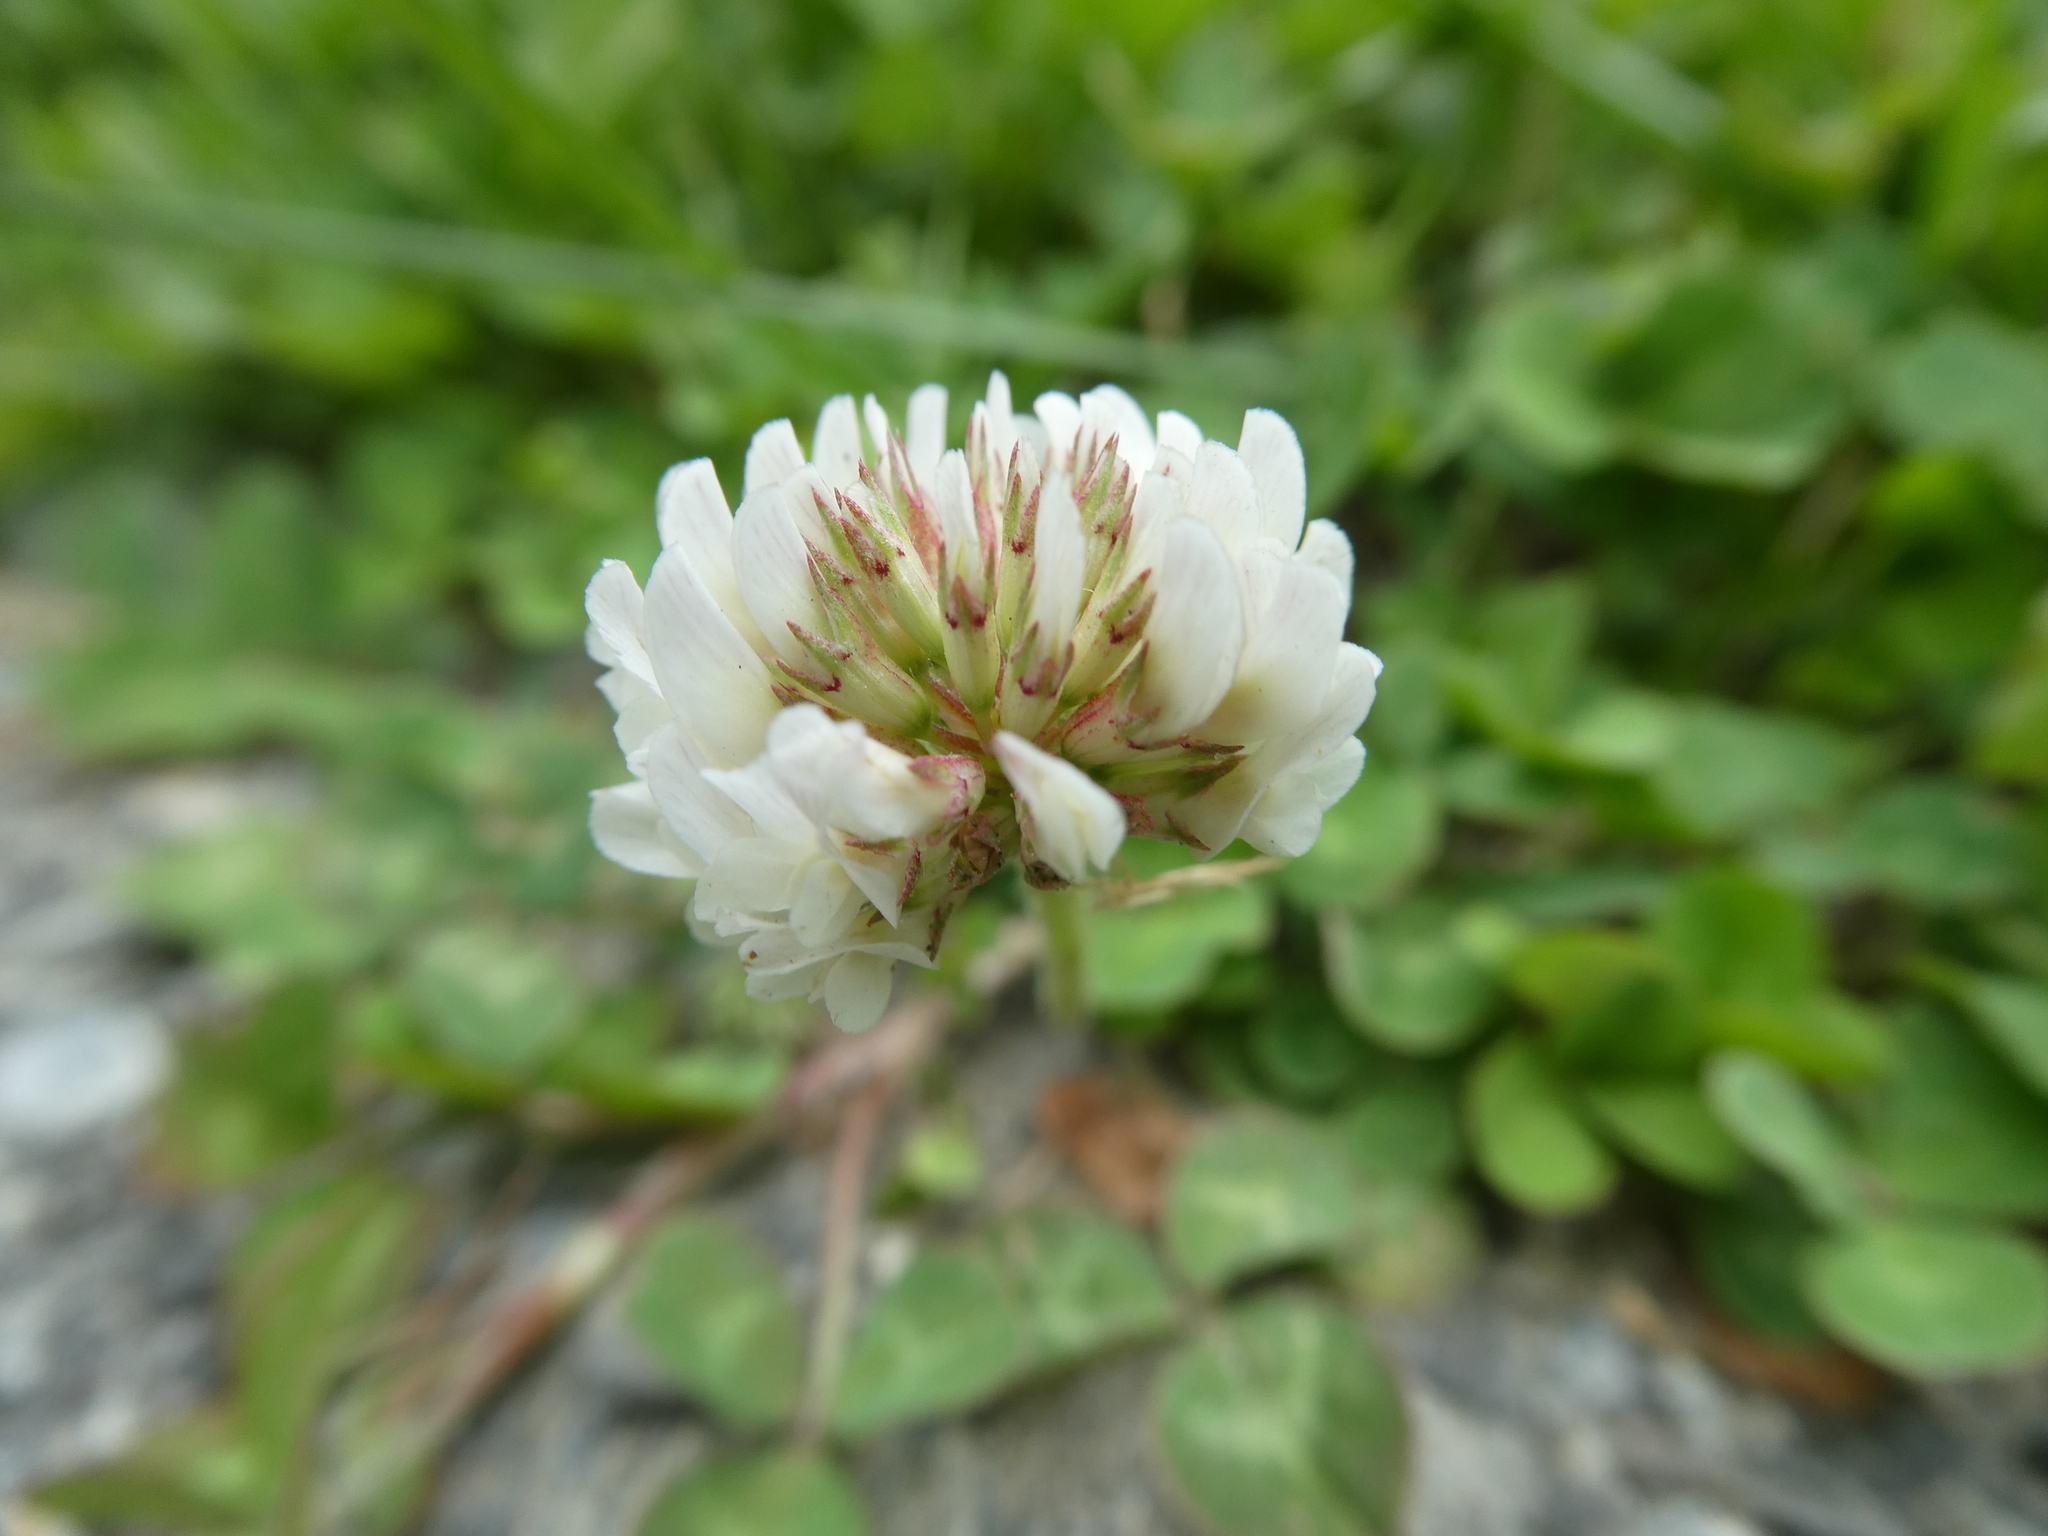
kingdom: Plantae
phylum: Tracheophyta
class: Magnoliopsida
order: Fabales
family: Fabaceae
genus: Trifolium
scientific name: Trifolium repens
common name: White clover
